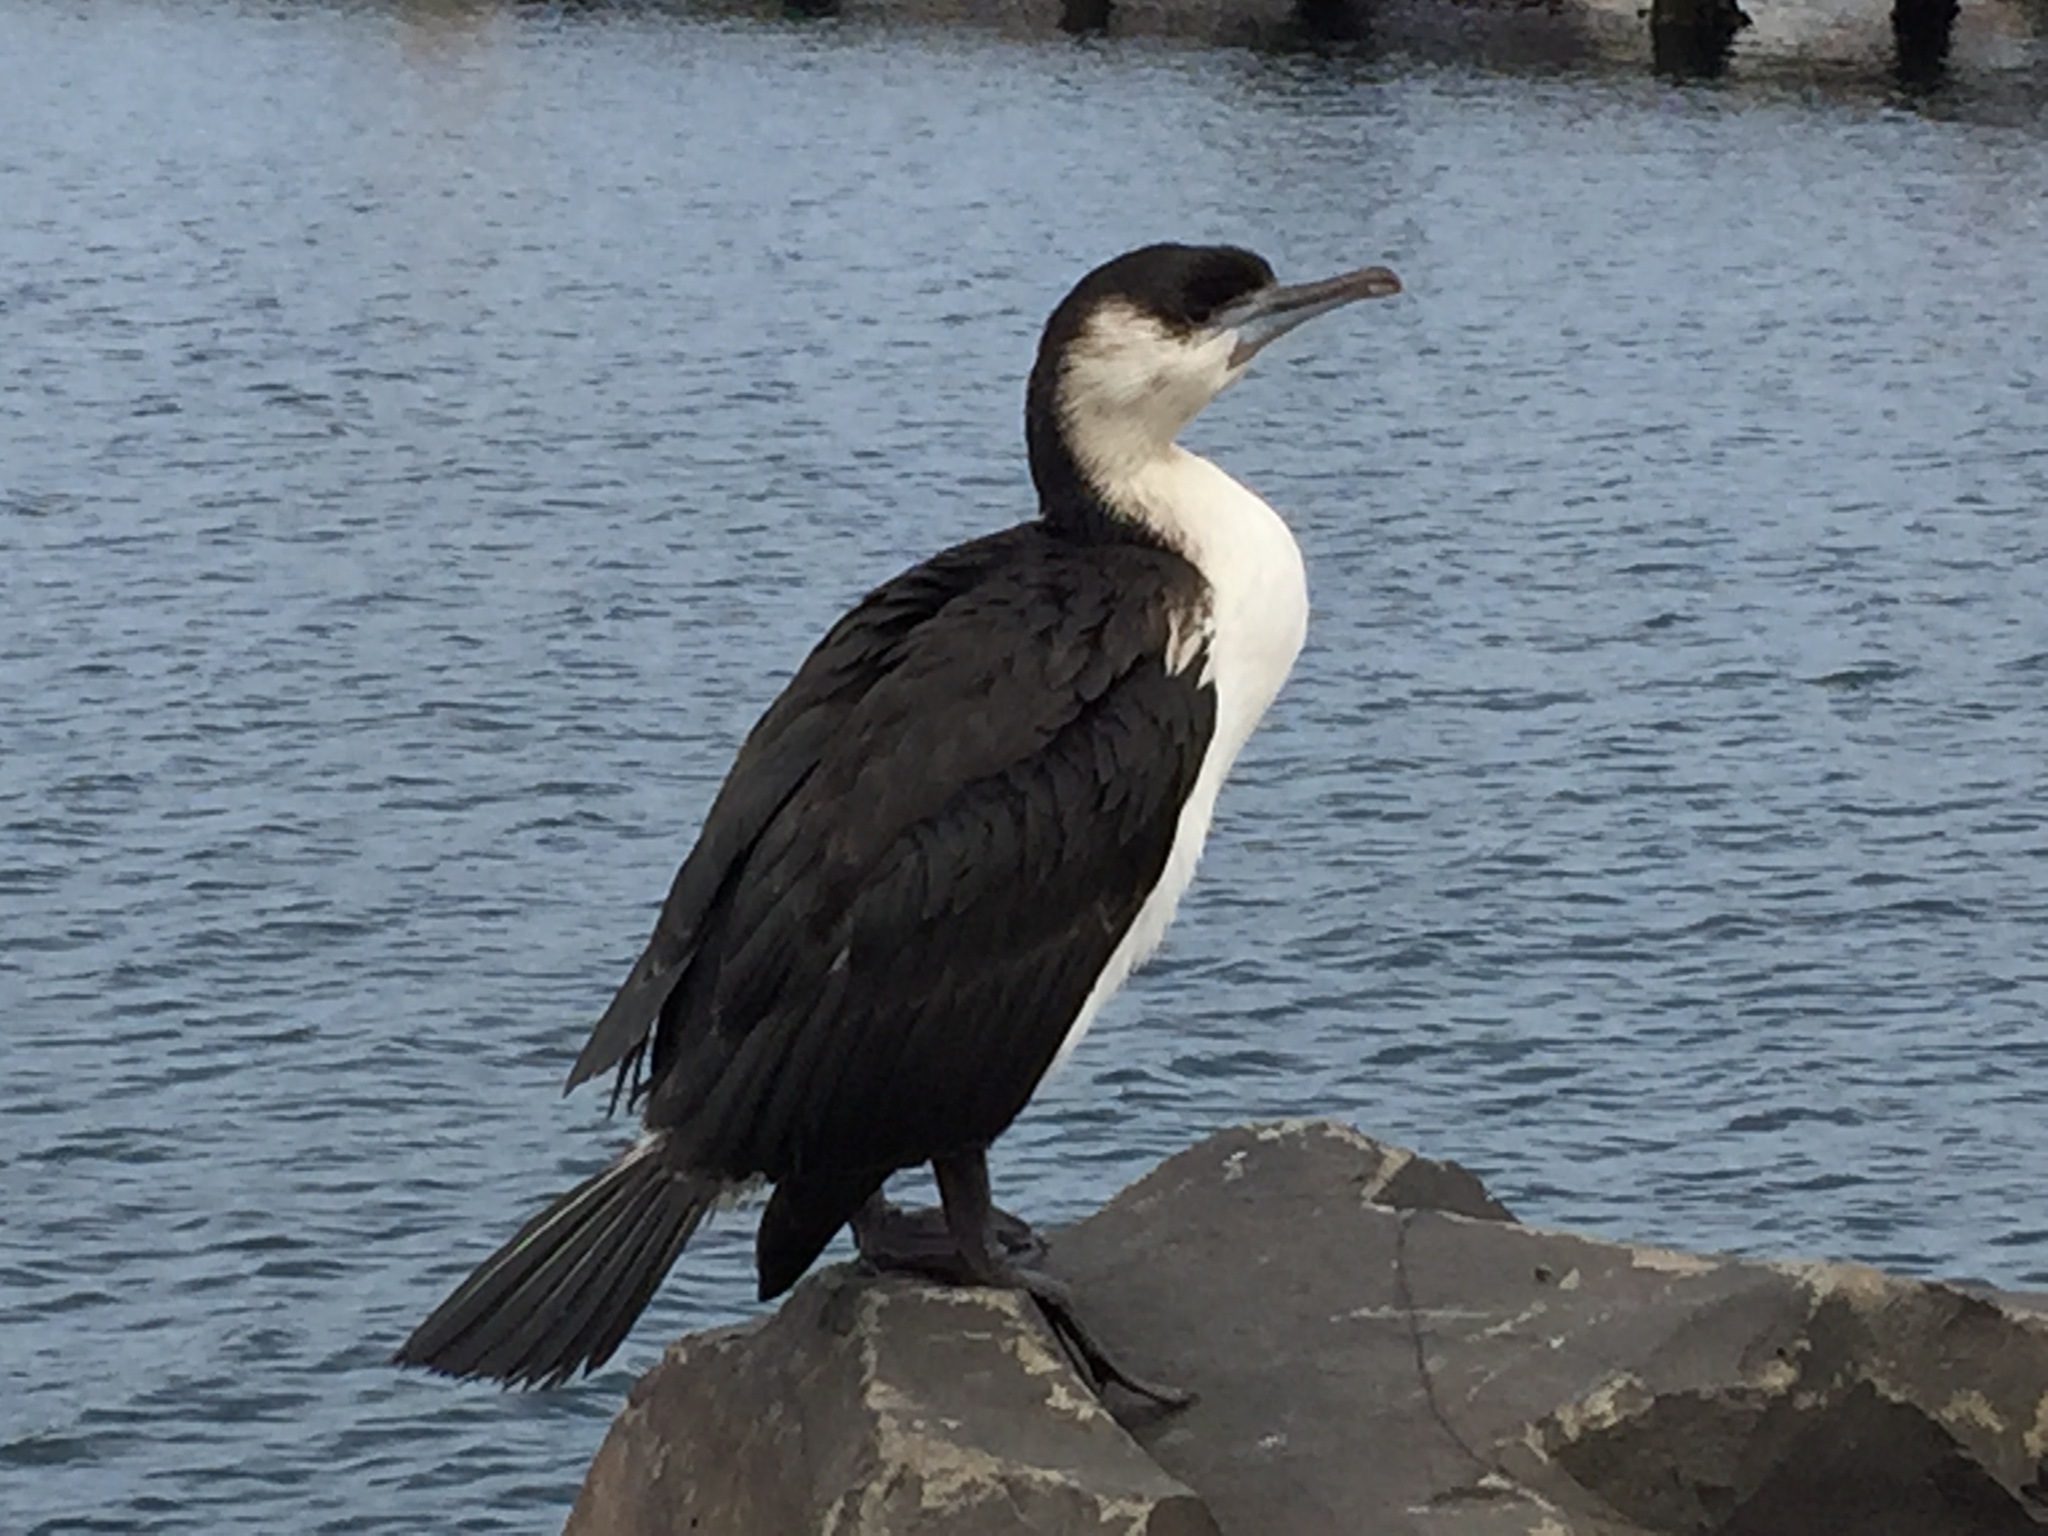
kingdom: Animalia
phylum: Chordata
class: Aves
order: Suliformes
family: Phalacrocoracidae
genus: Phalacrocorax
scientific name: Phalacrocorax fuscescens
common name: Black-faced cormorant
